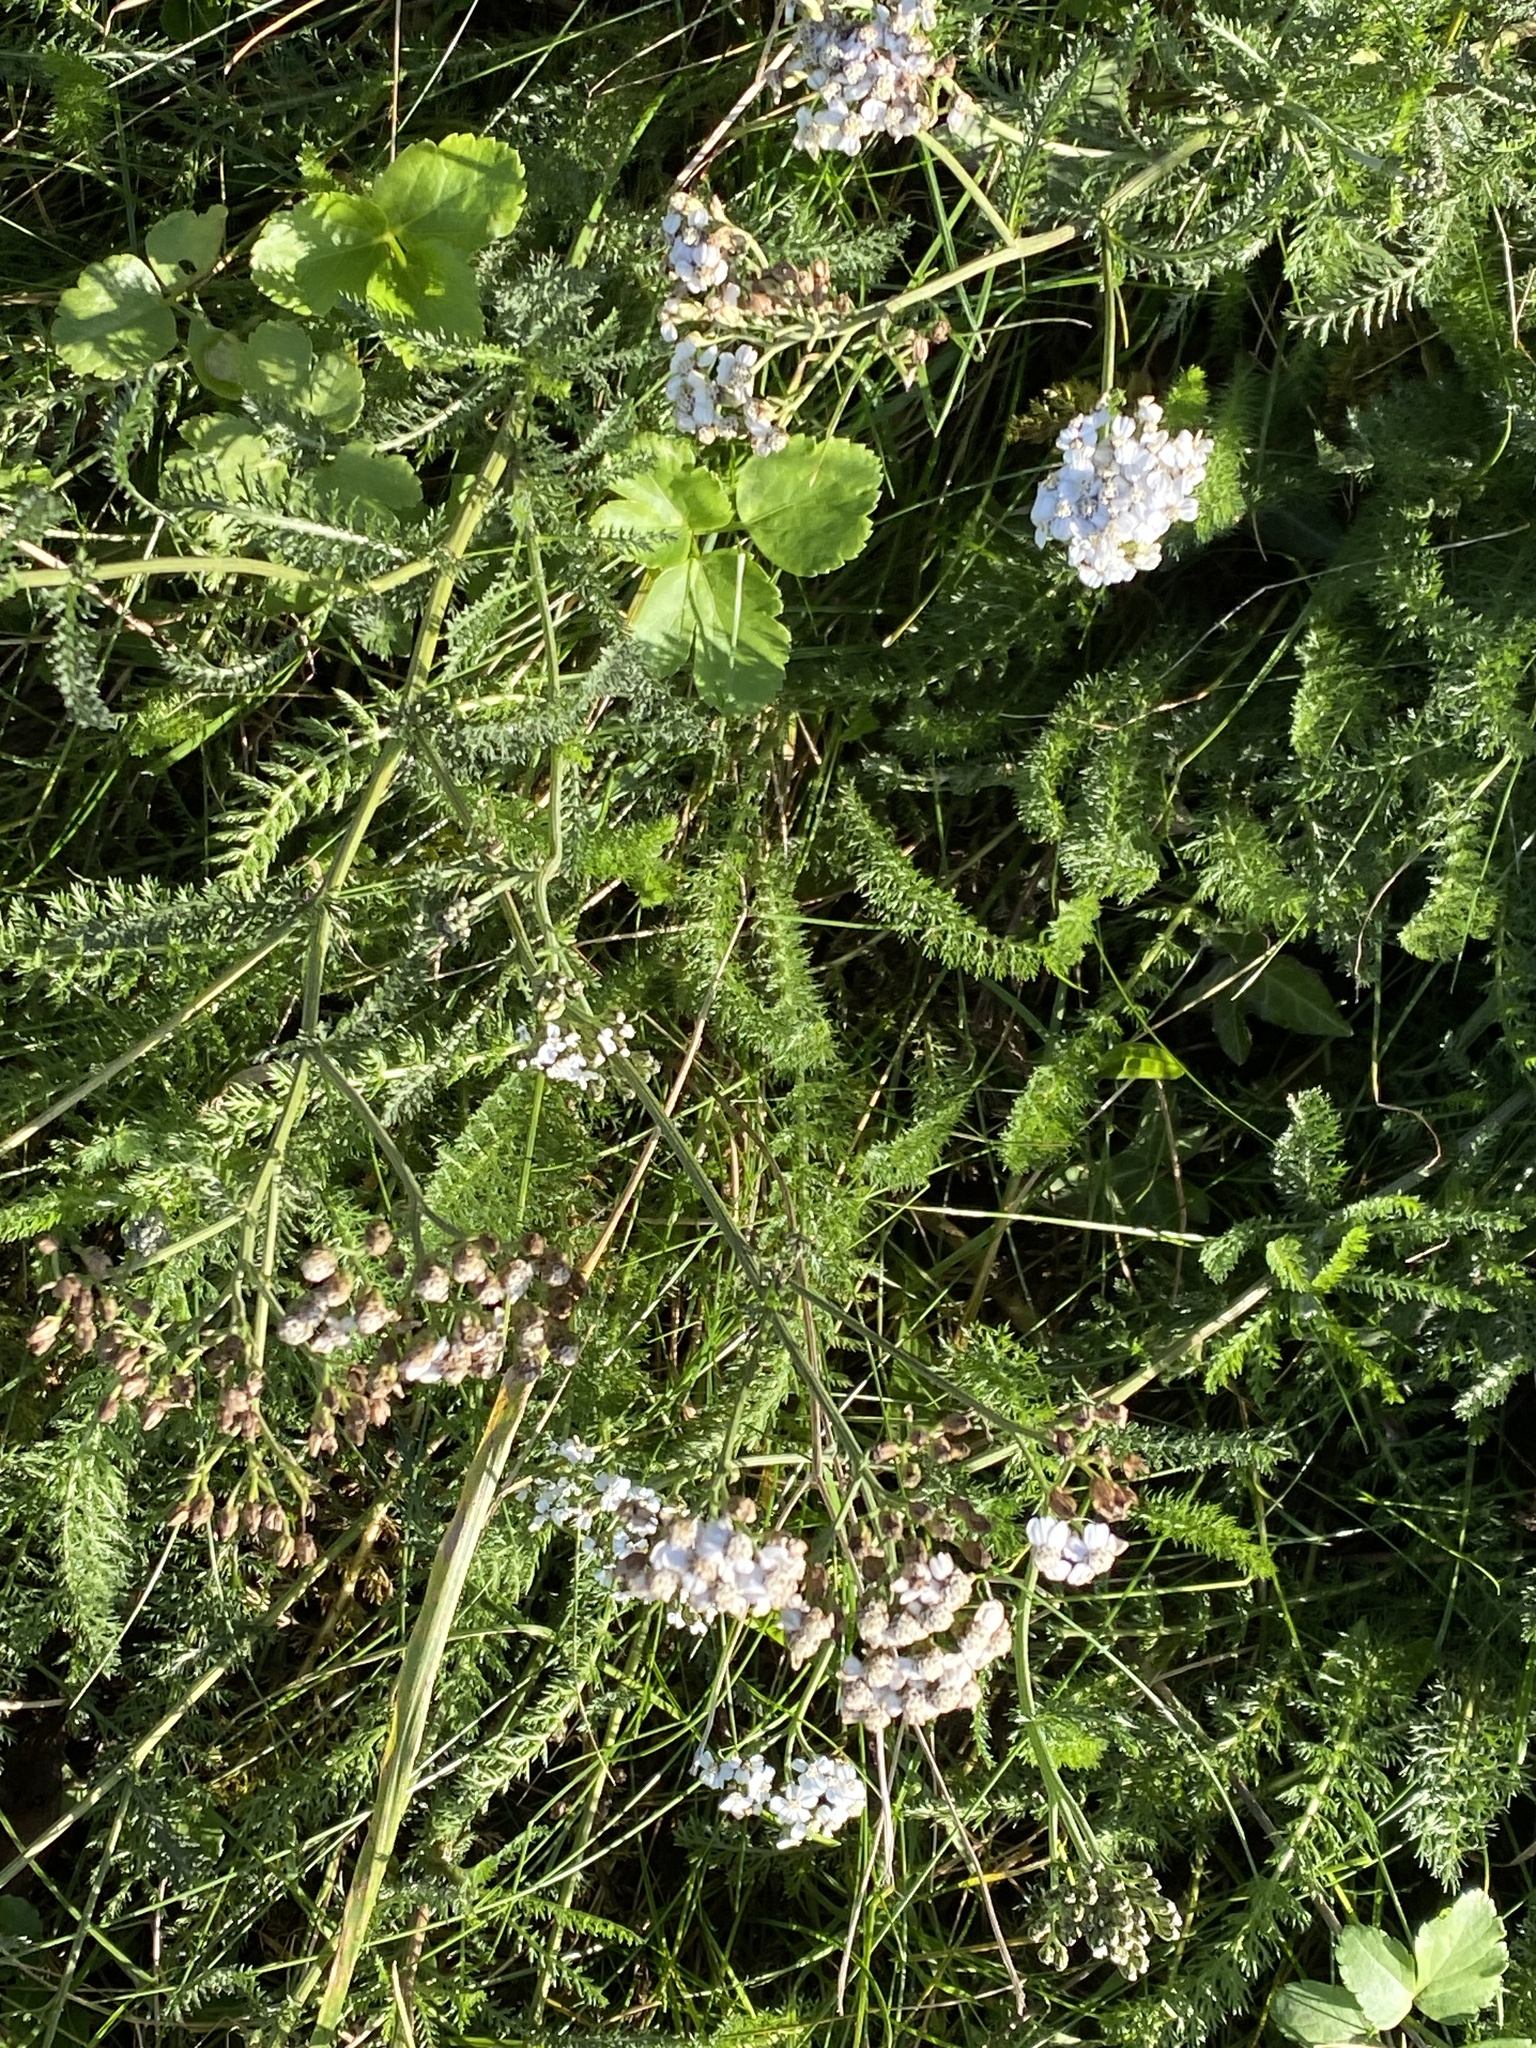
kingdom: Plantae
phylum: Tracheophyta
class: Magnoliopsida
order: Asterales
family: Asteraceae
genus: Achillea
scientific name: Achillea millefolium
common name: Yarrow
